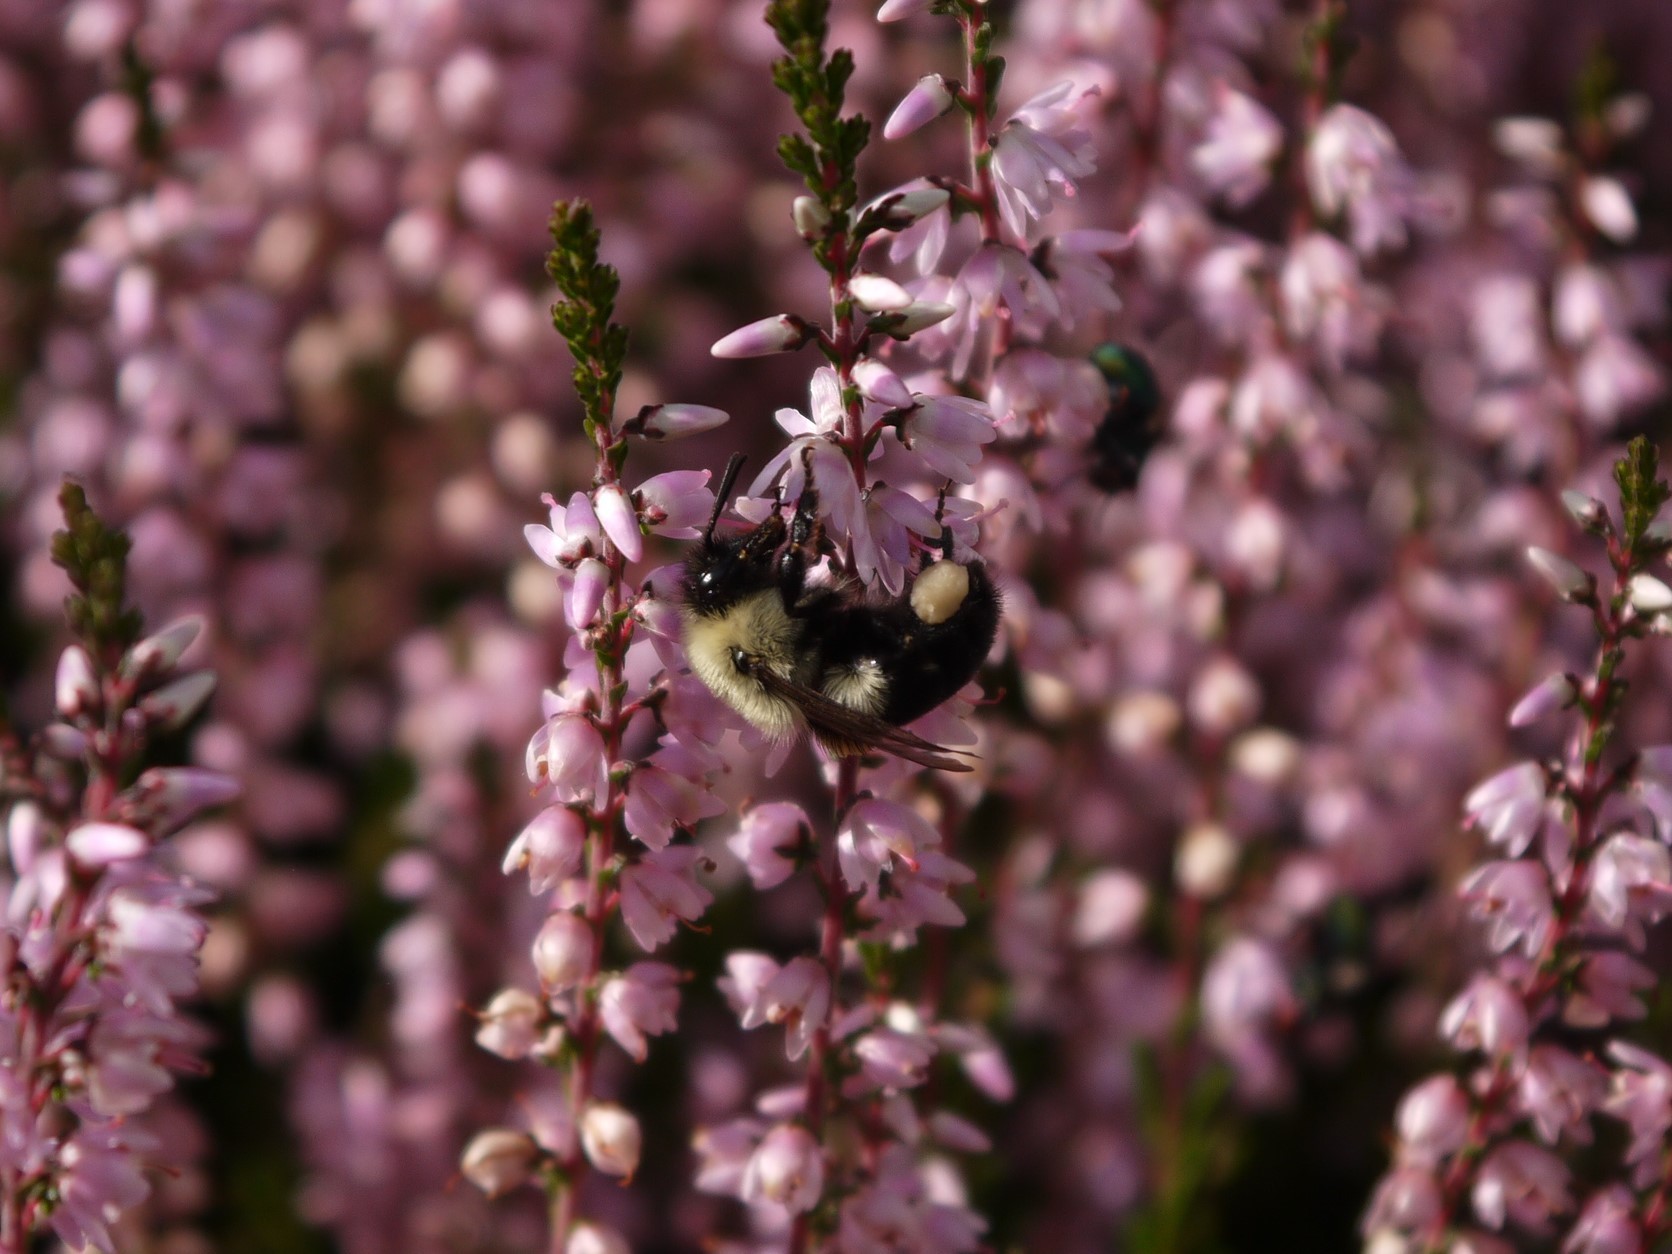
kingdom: Animalia
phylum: Arthropoda
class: Insecta
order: Hymenoptera
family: Apidae
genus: Bombus
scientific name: Bombus impatiens
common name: Common eastern bumble bee
